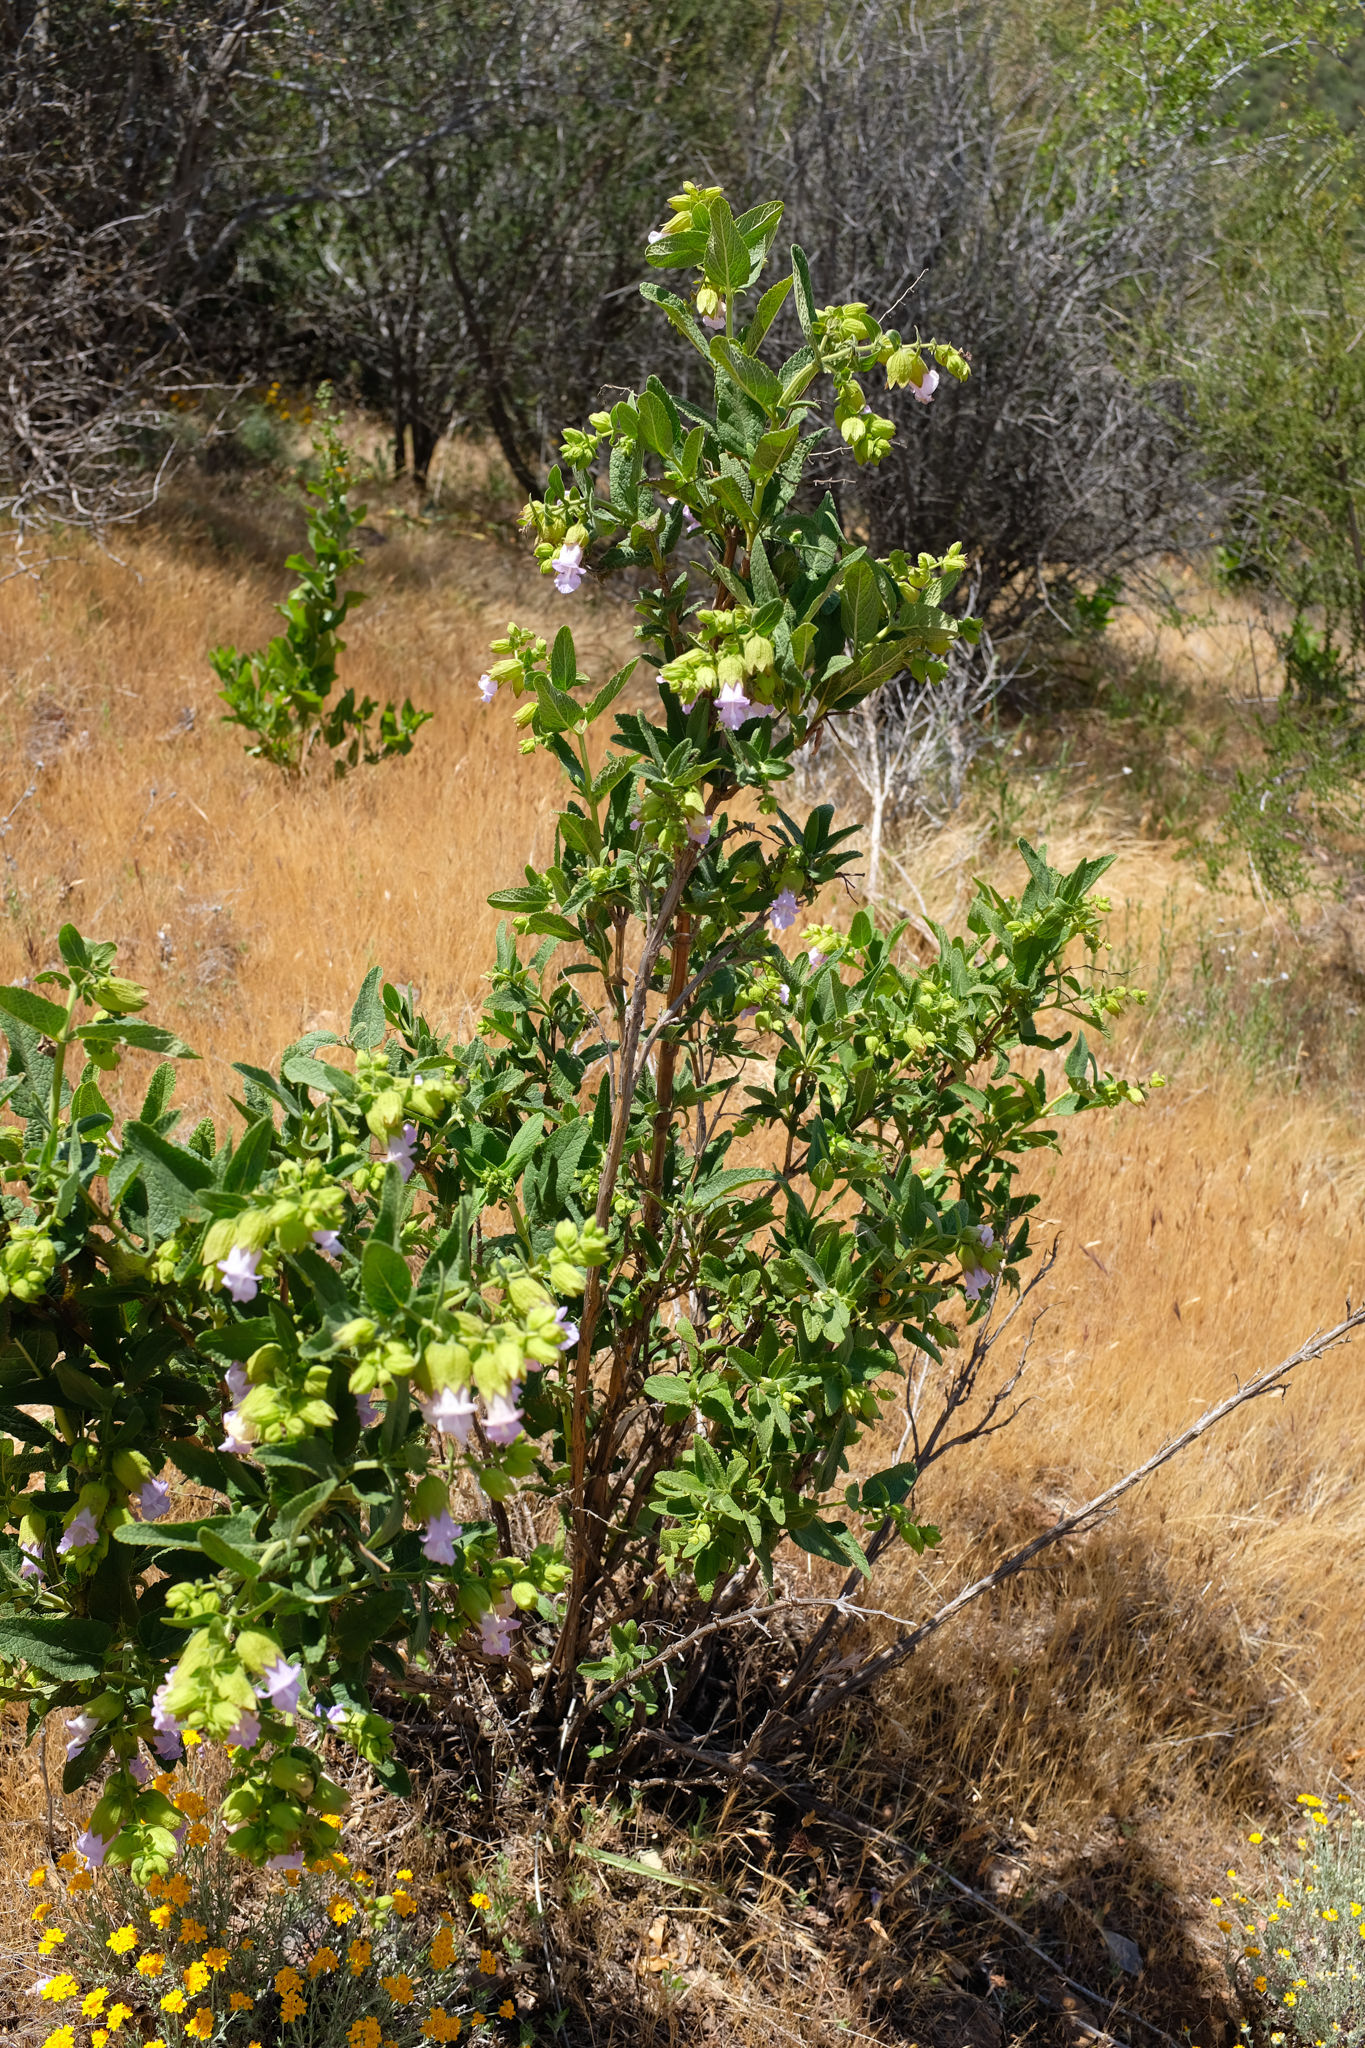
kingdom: Plantae
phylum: Tracheophyta
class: Magnoliopsida
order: Lamiales
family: Lamiaceae
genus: Lepechinia
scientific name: Lepechinia calycina
